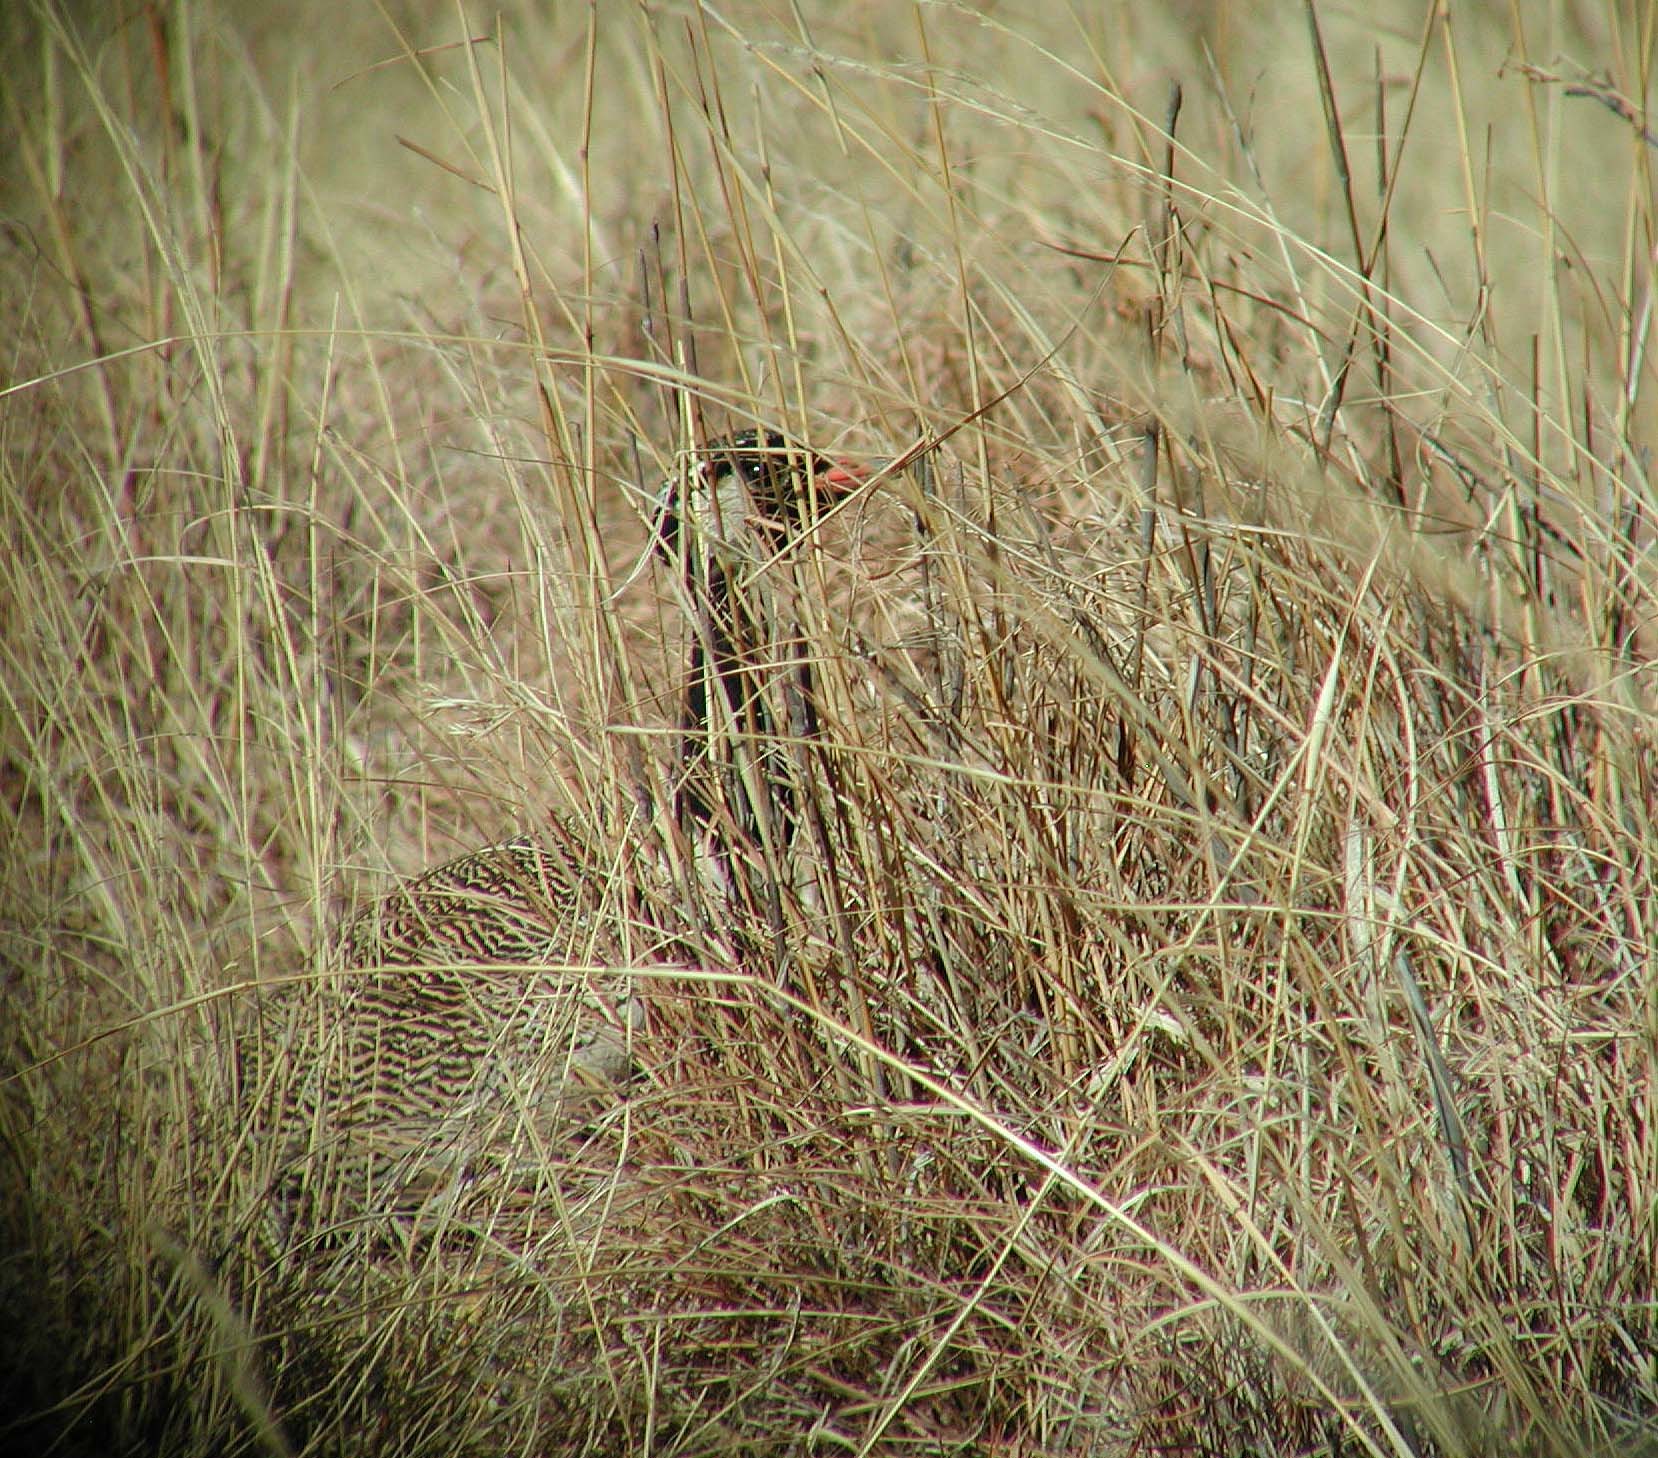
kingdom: Animalia
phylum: Chordata
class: Aves
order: Otidiformes
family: Otididae
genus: Afrotis
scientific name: Afrotis afraoides
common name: Northern black korhaan
